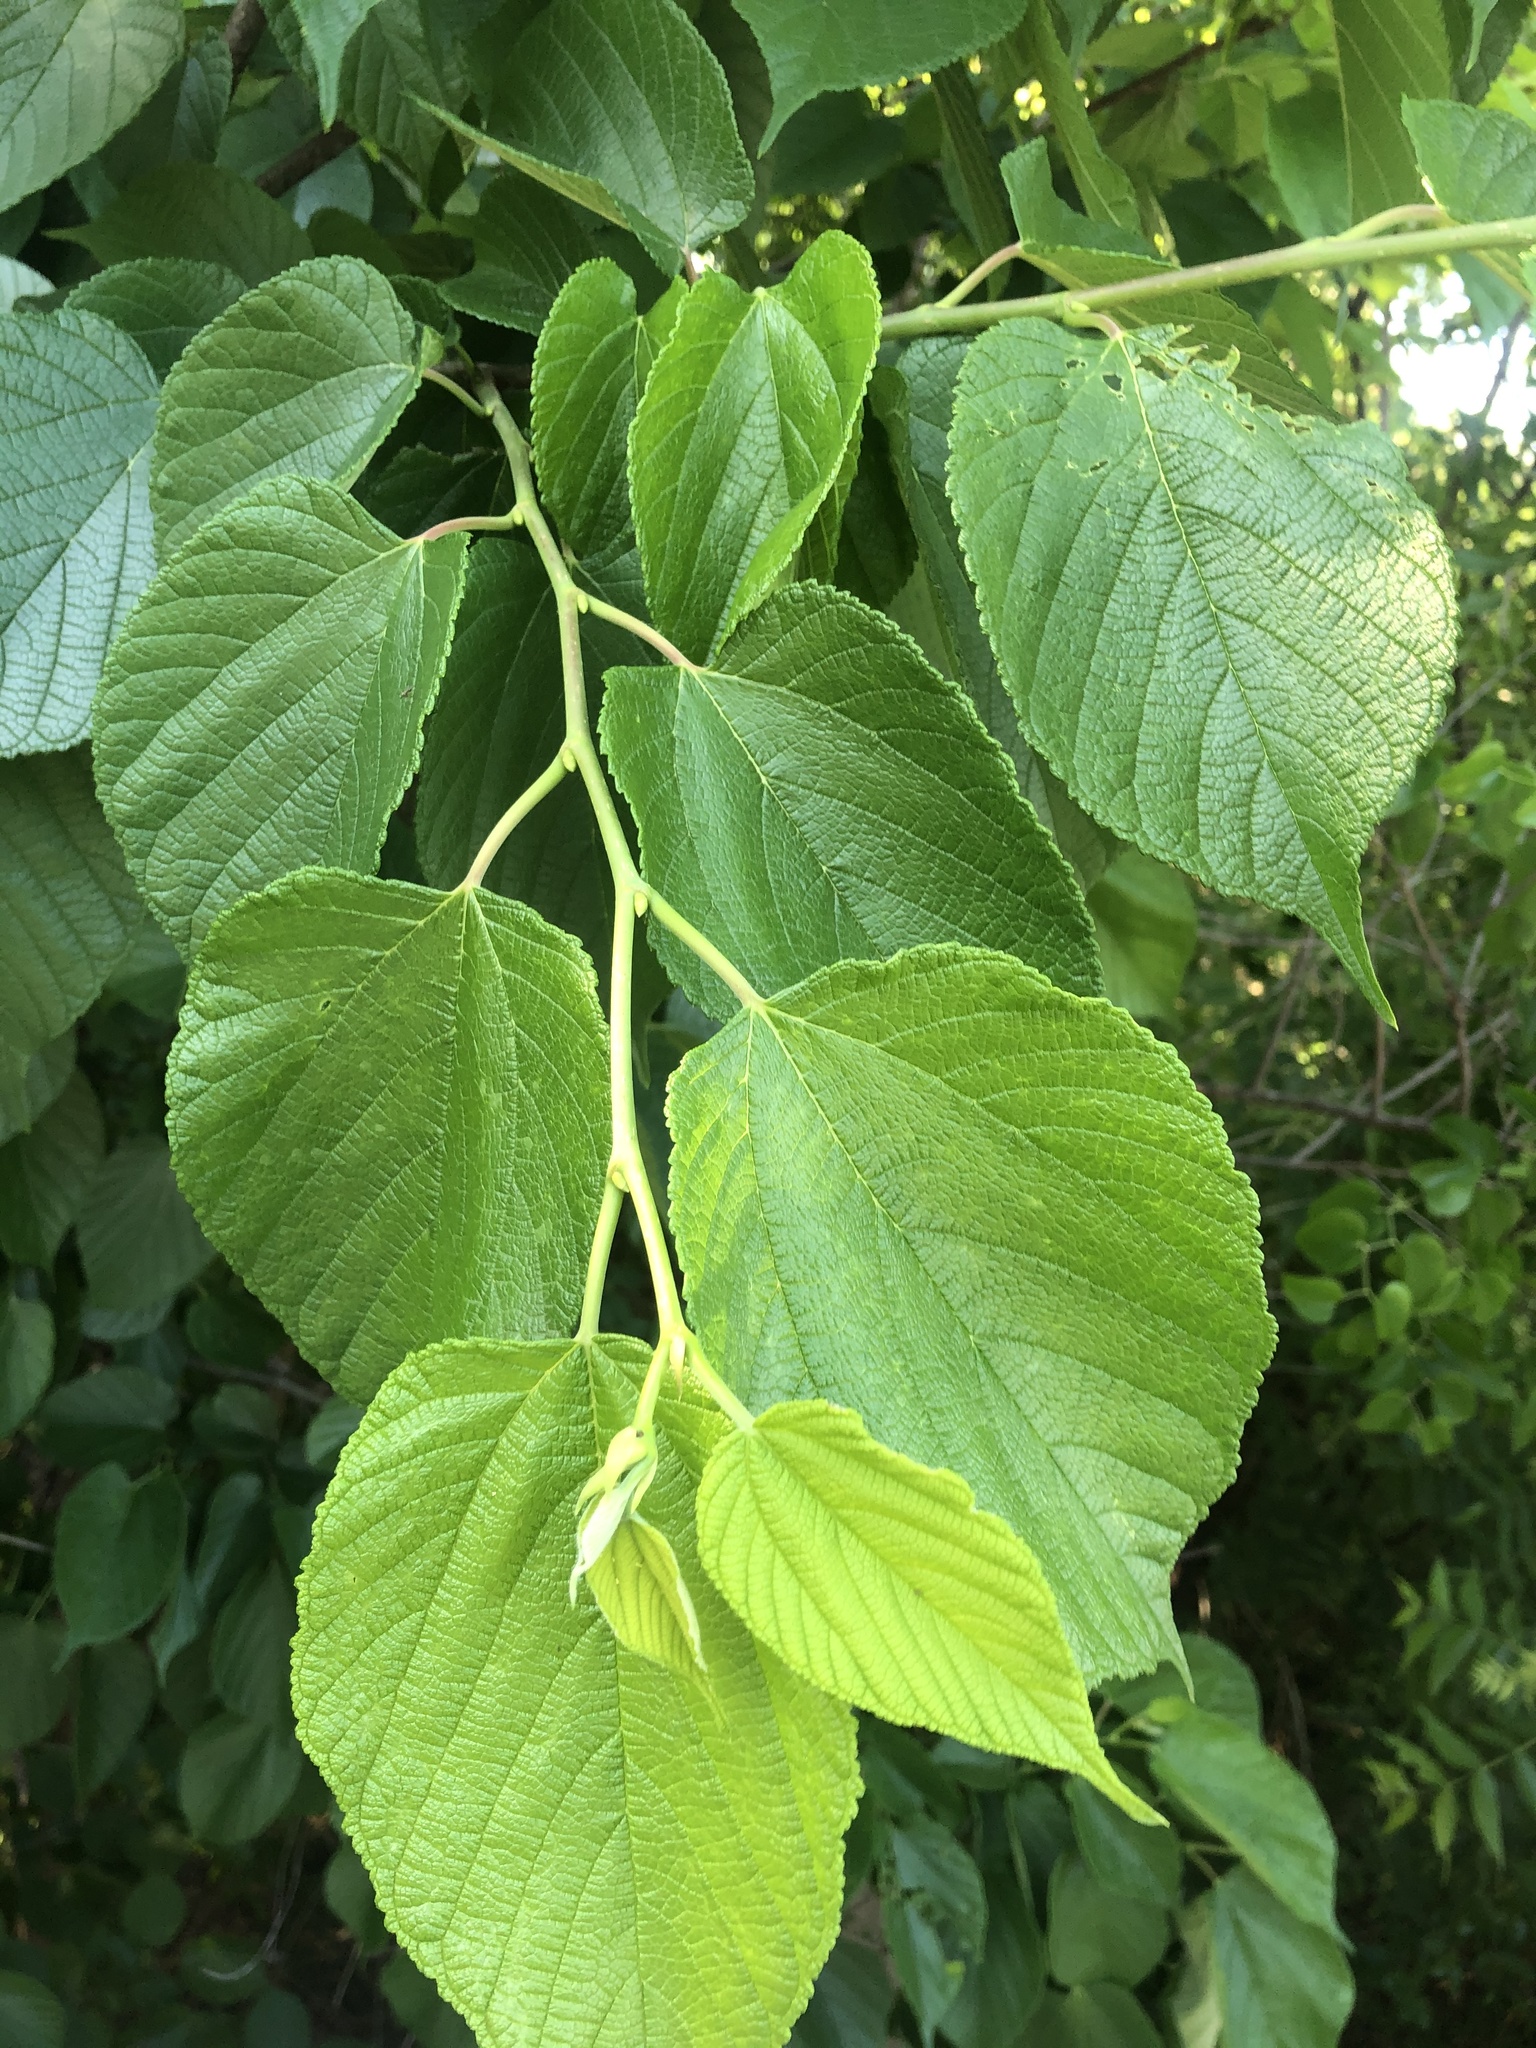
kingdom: Plantae
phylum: Tracheophyta
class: Magnoliopsida
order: Rosales
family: Moraceae
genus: Morus
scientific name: Morus rubra
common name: Red mulberry
